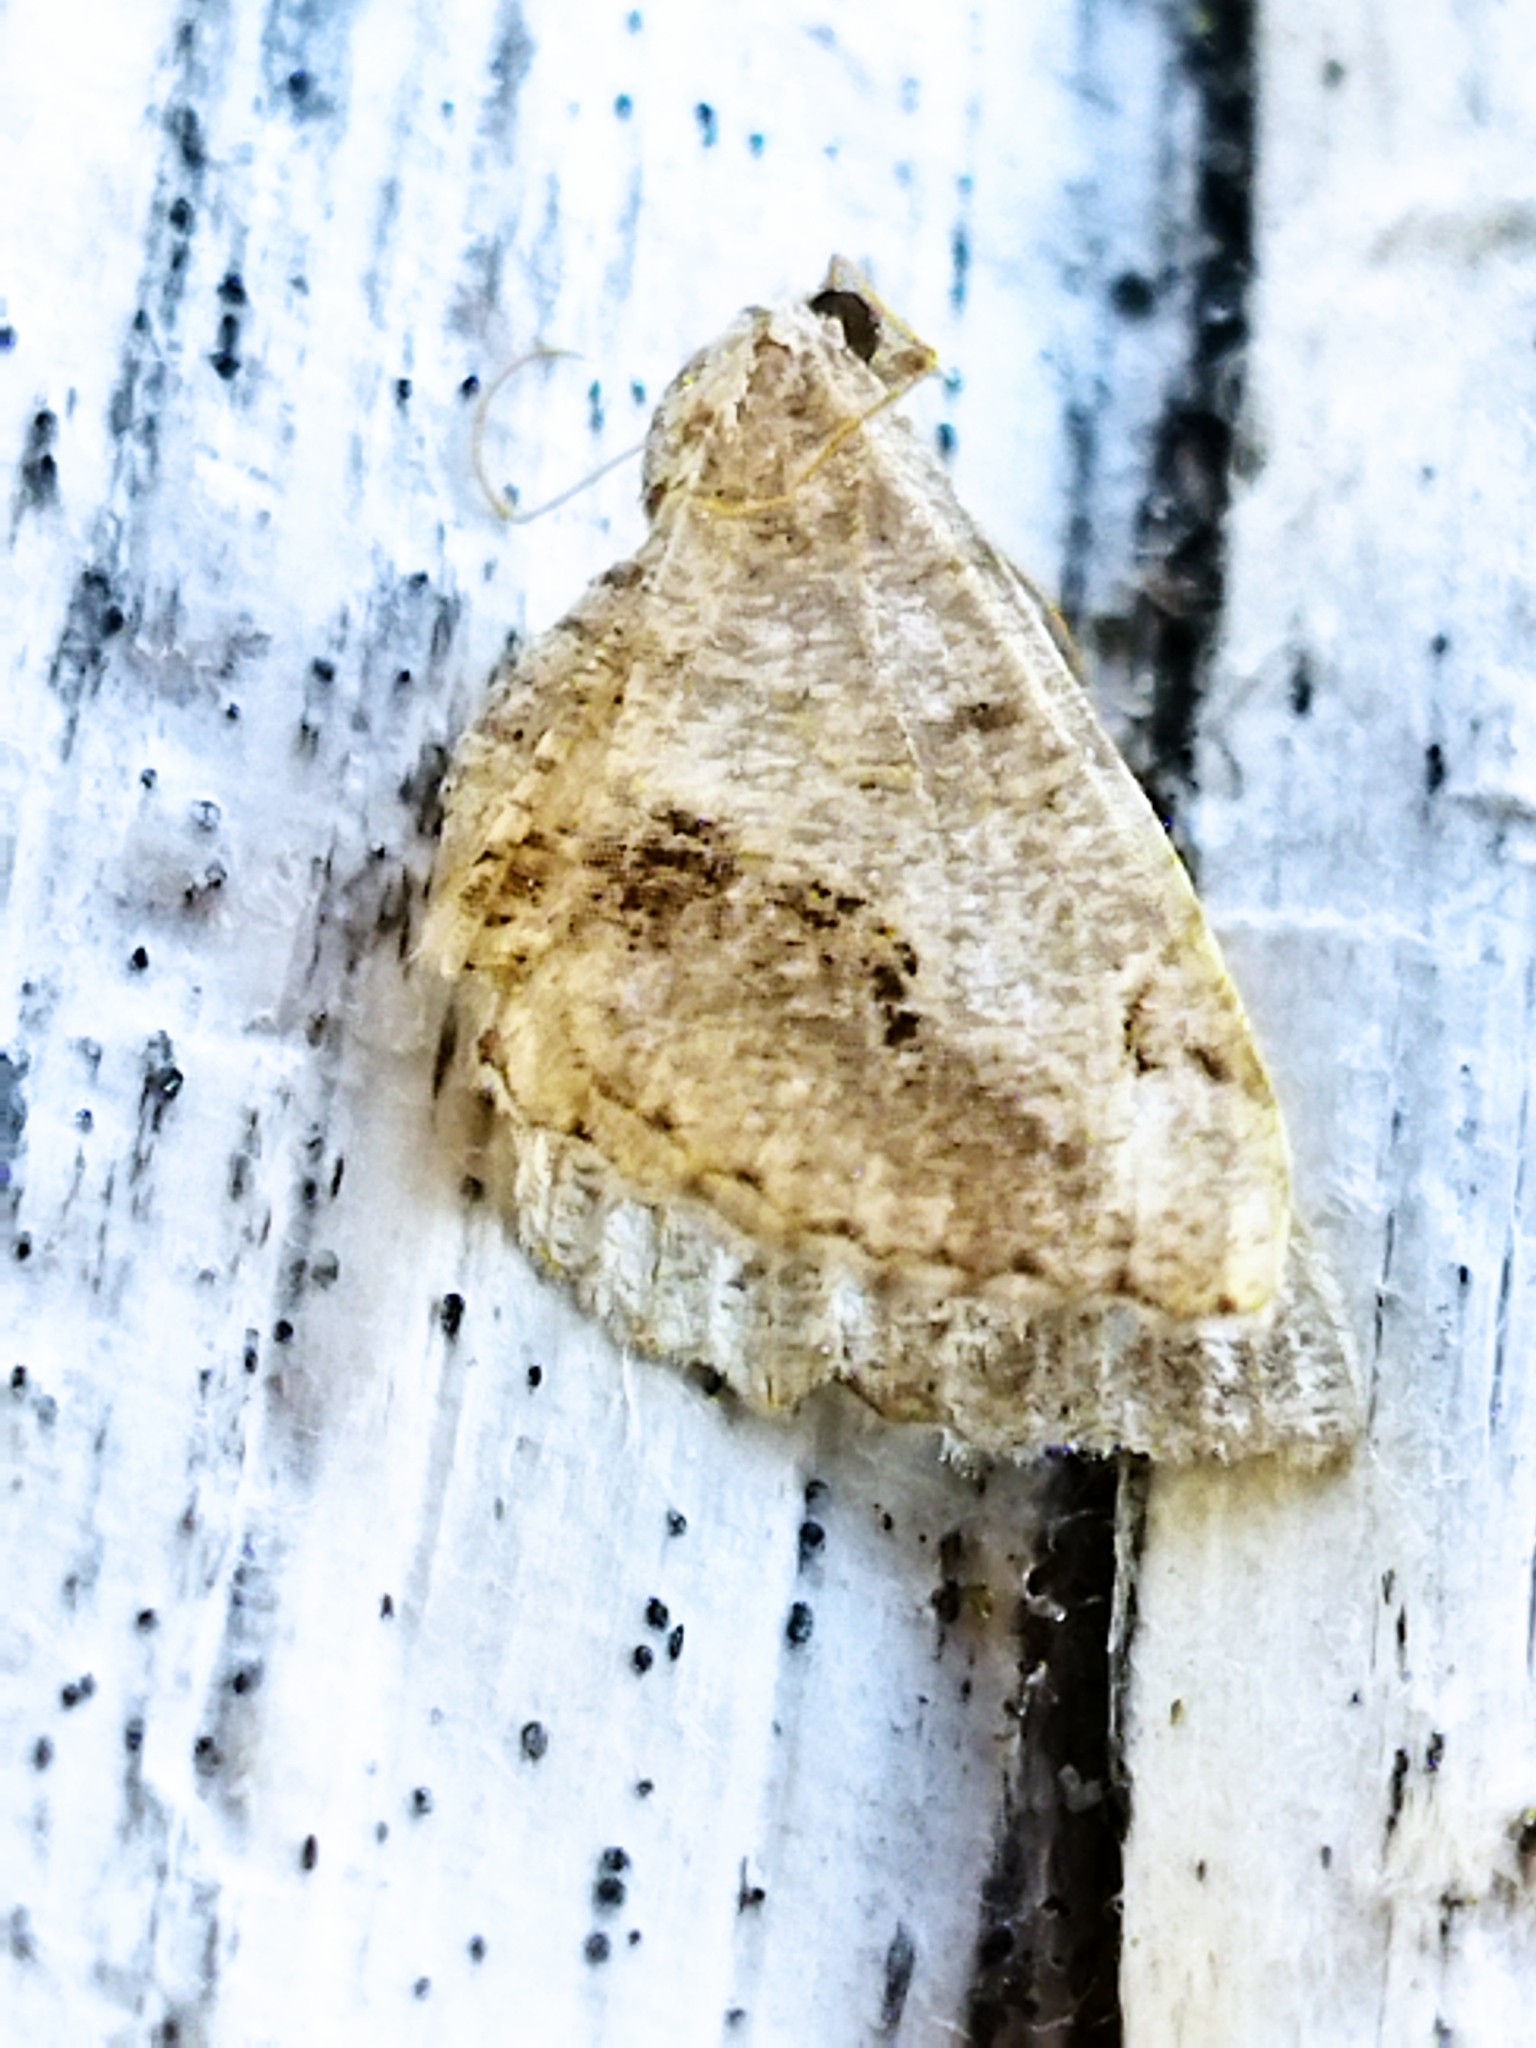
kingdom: Animalia
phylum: Arthropoda
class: Insecta
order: Lepidoptera
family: Geometridae
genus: Chiasmia
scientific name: Chiasmia aestimaria
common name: Tamarisk peacock
